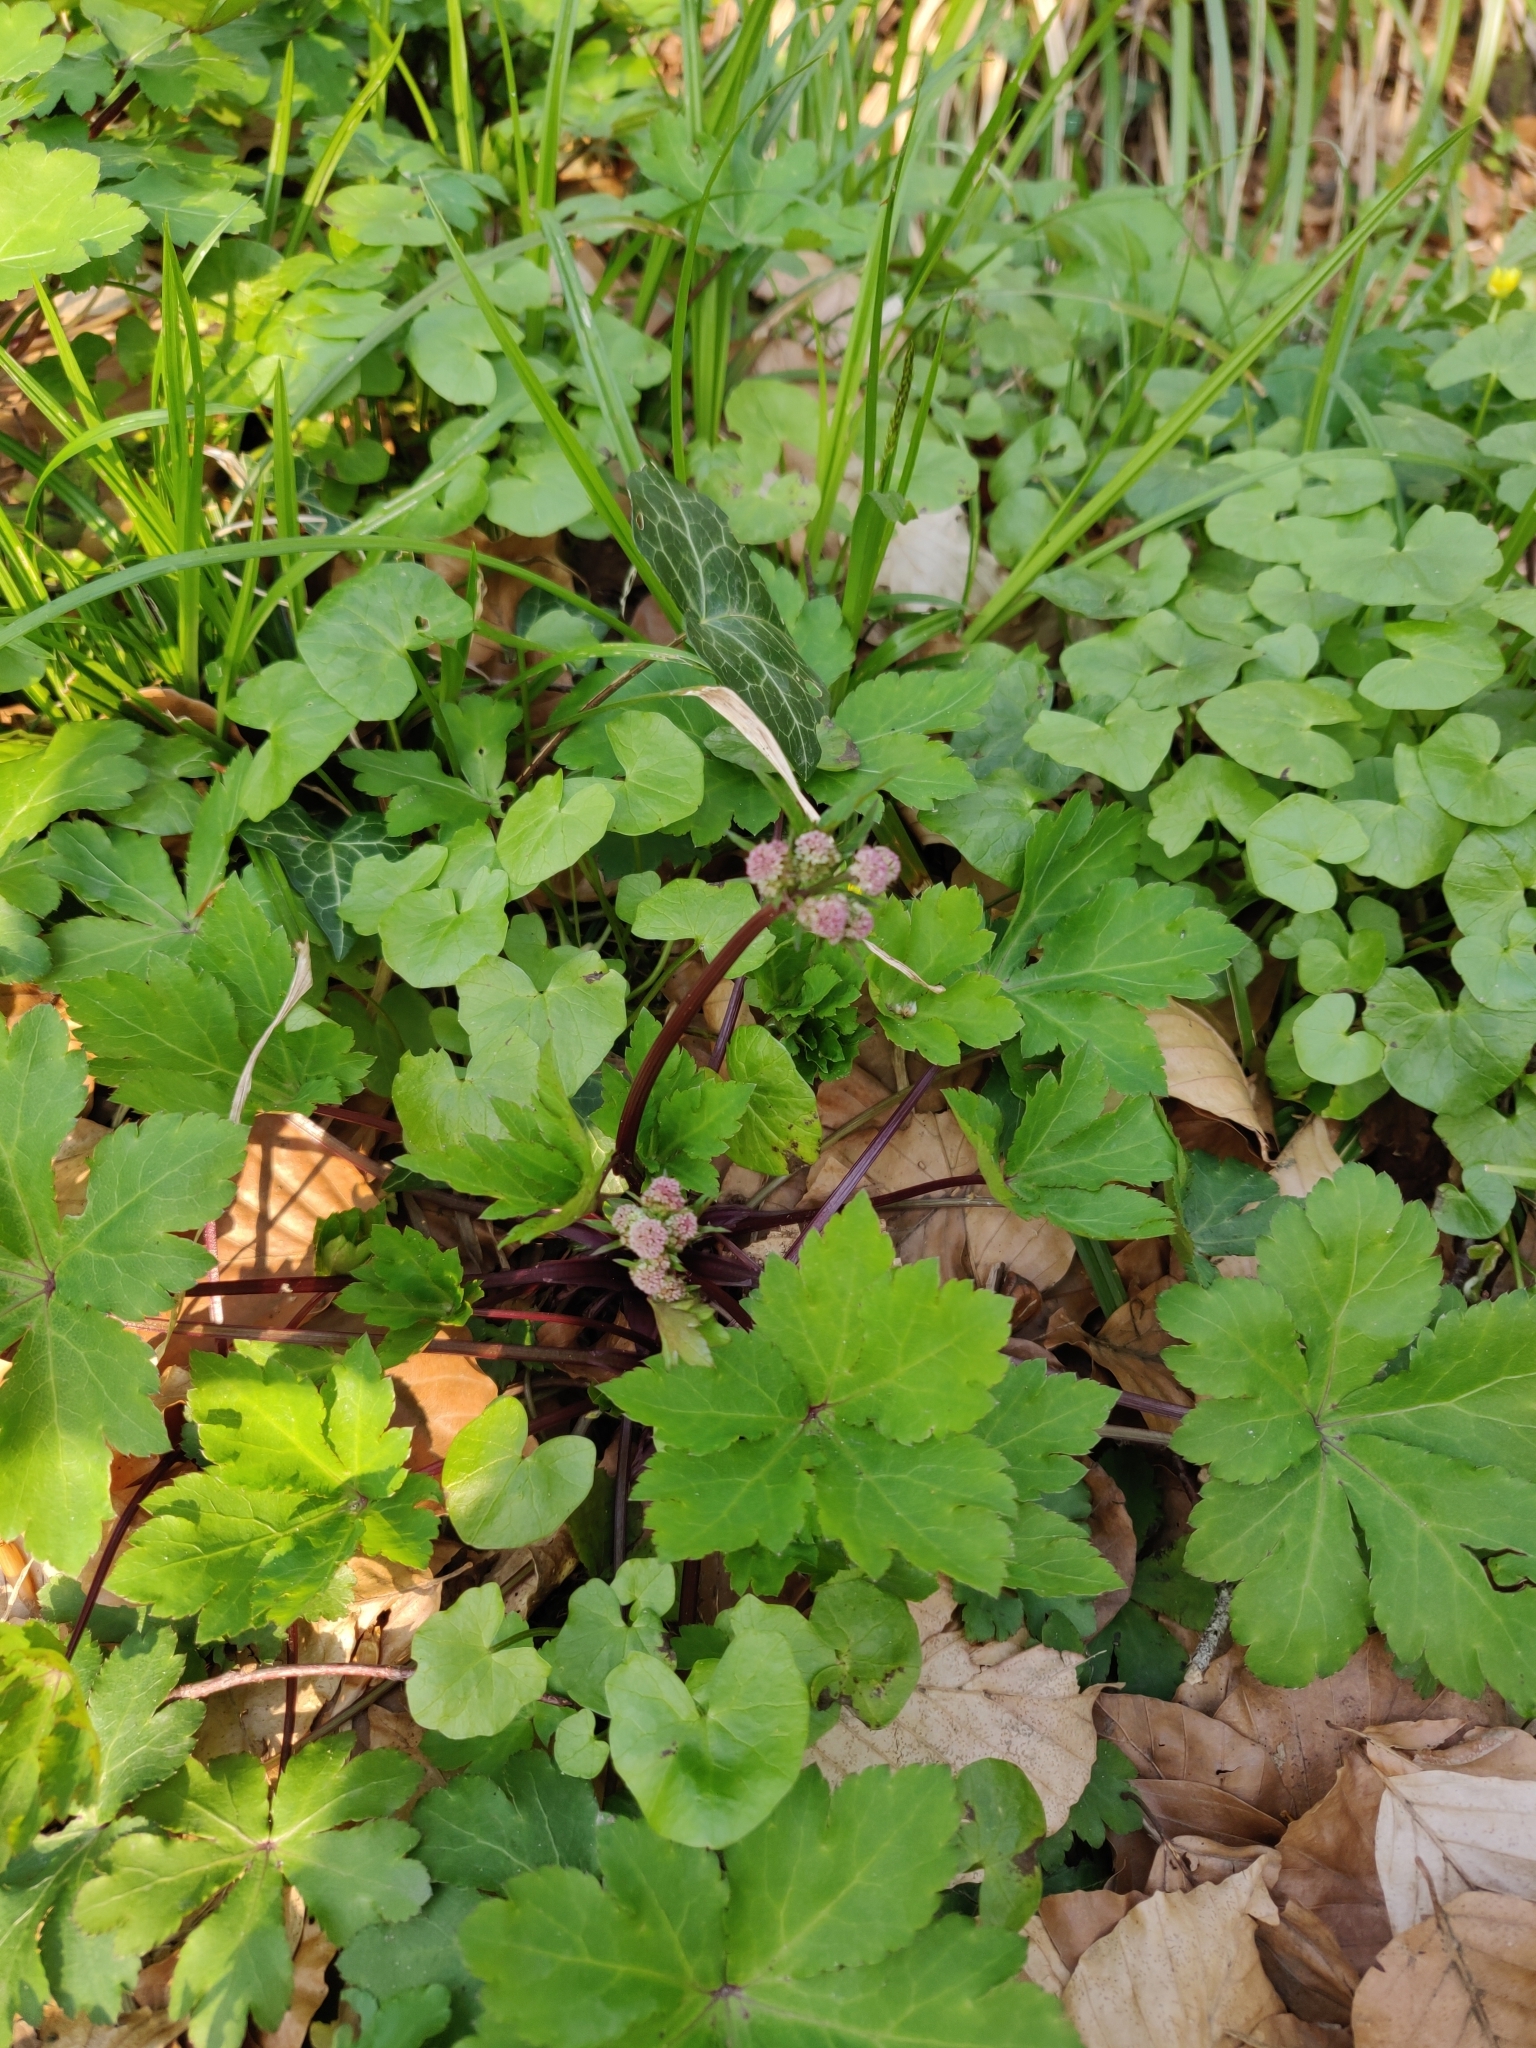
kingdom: Plantae
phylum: Tracheophyta
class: Magnoliopsida
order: Apiales
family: Apiaceae
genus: Sanicula
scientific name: Sanicula europaea
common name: Sanicle
